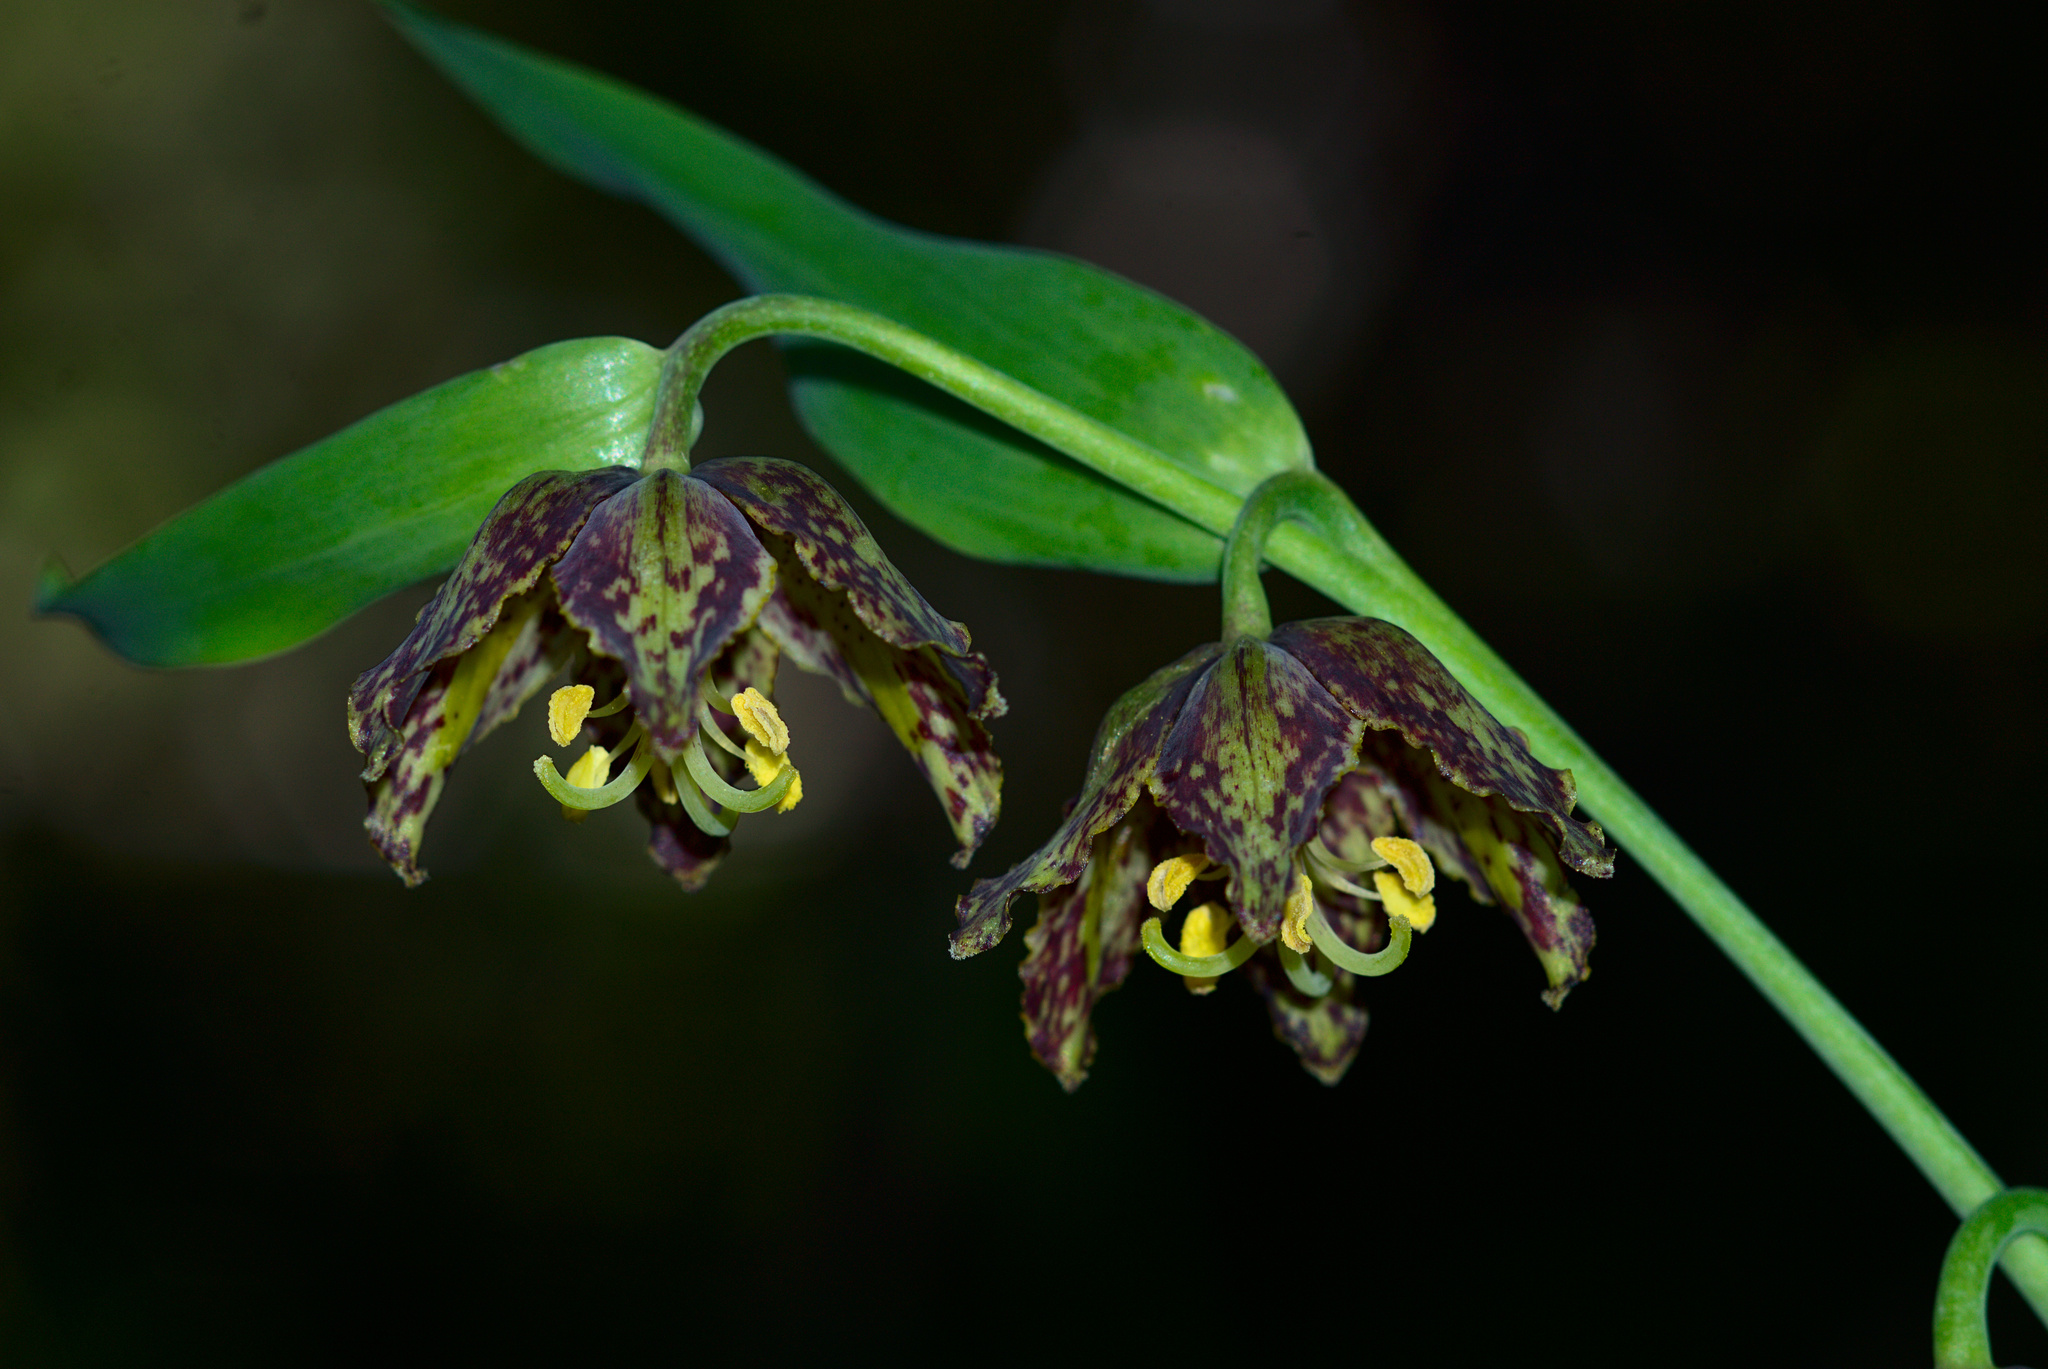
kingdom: Plantae
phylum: Tracheophyta
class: Liliopsida
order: Liliales
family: Liliaceae
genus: Fritillaria
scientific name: Fritillaria affinis
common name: Ojai fritillary
